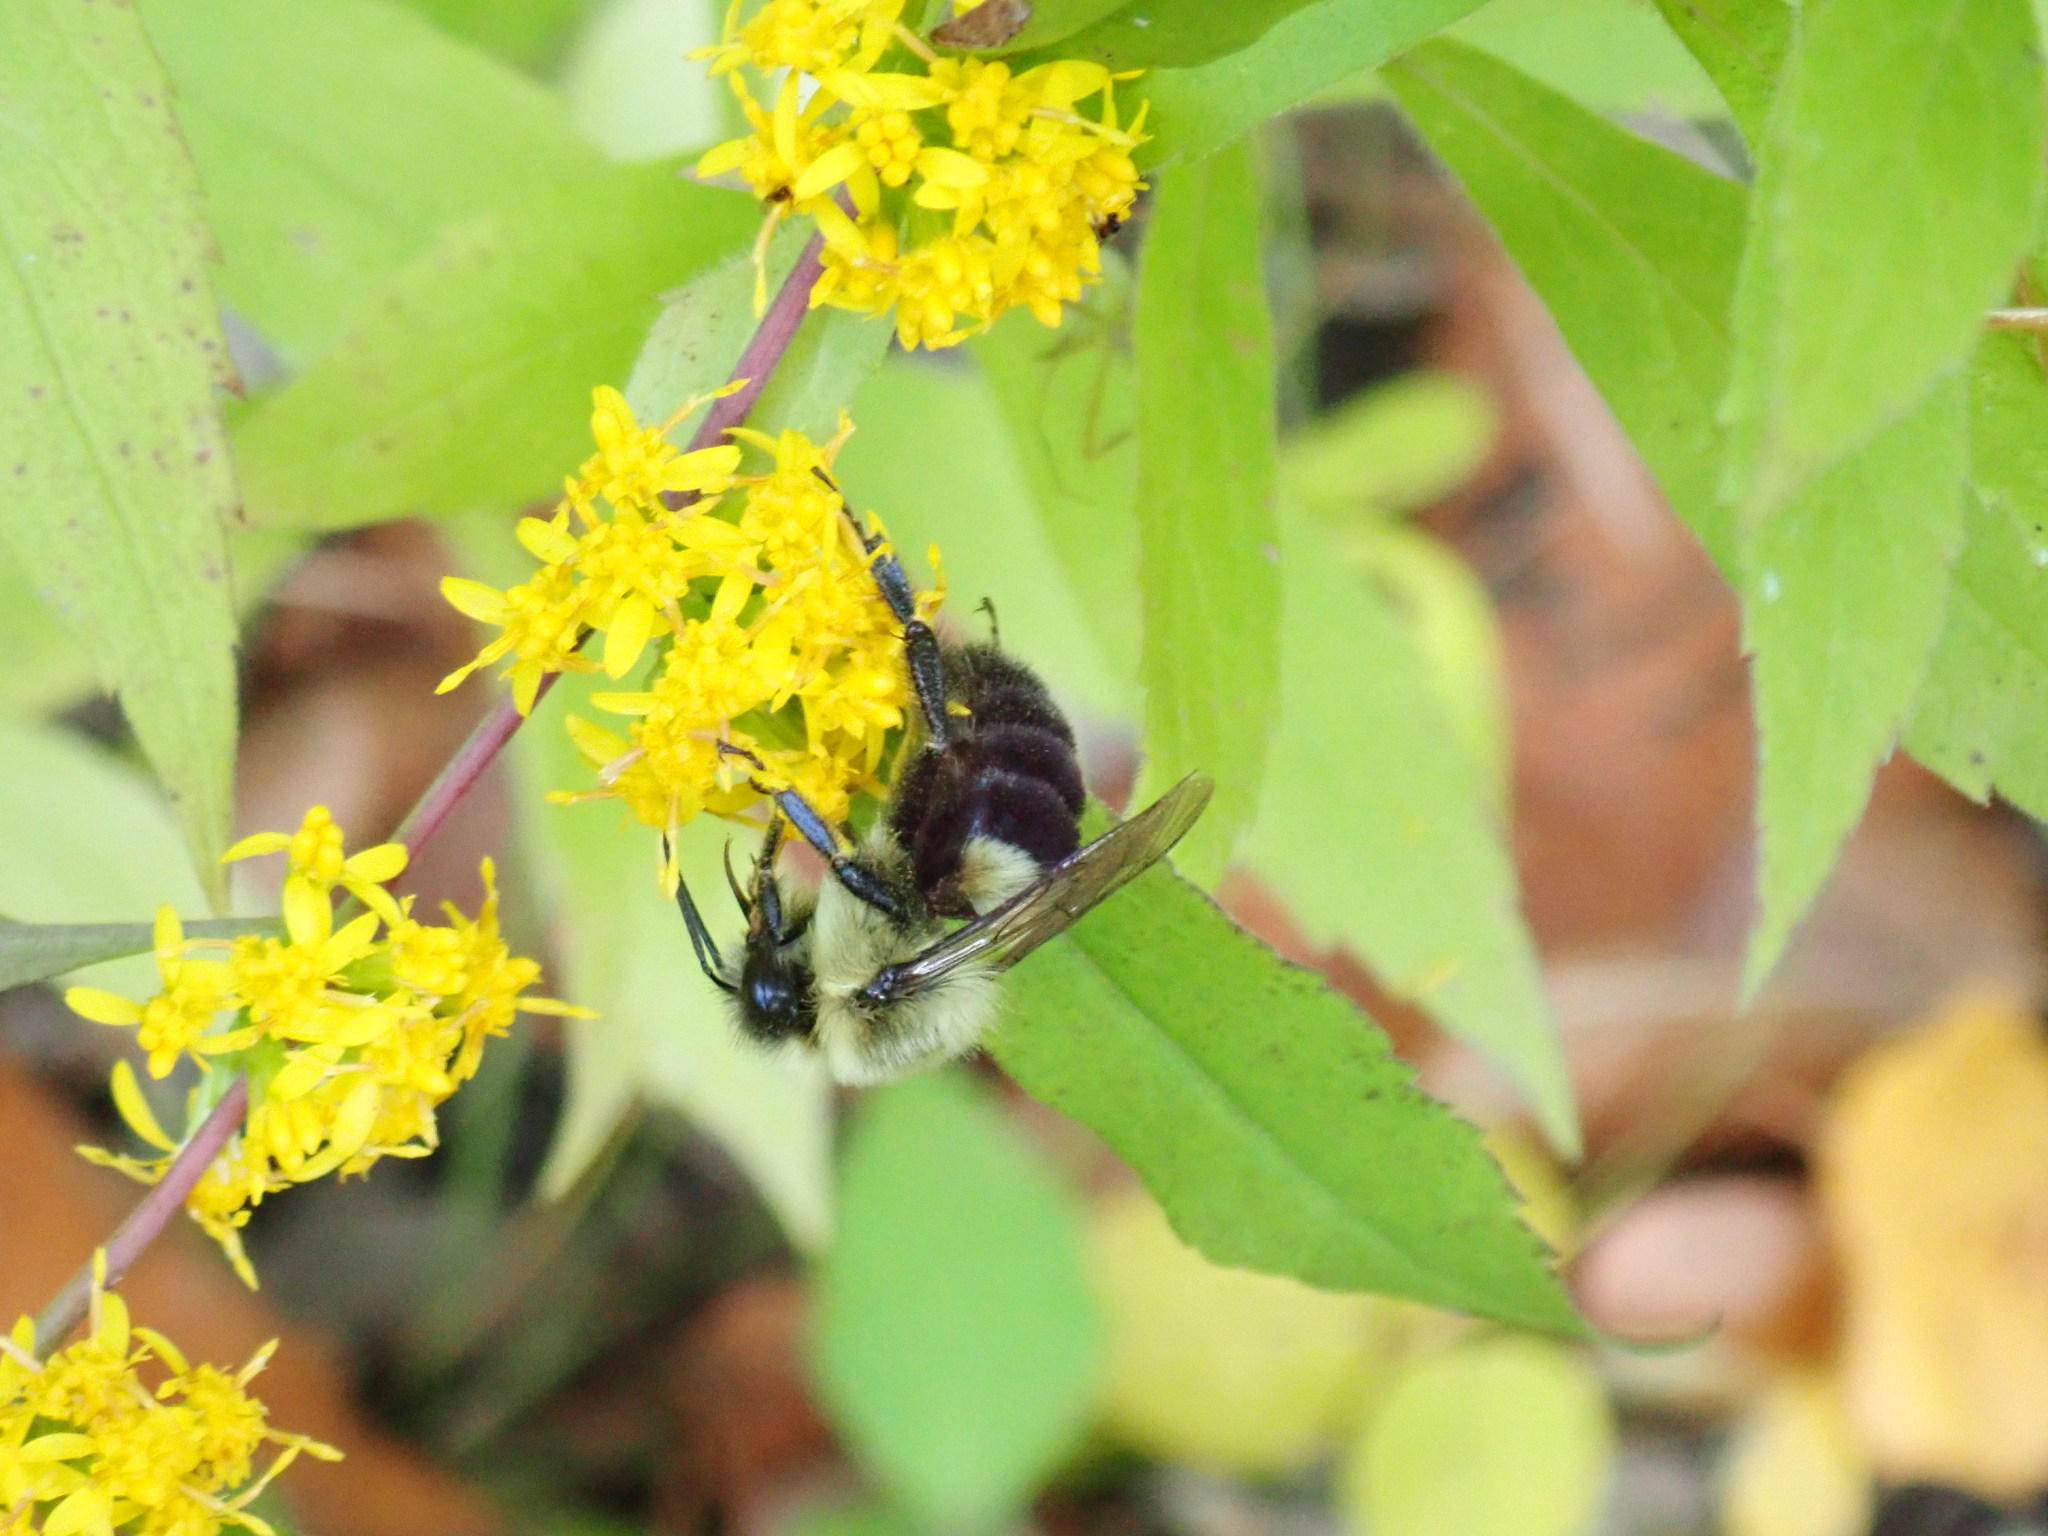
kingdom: Animalia
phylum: Arthropoda
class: Insecta
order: Hymenoptera
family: Apidae
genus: Bombus
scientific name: Bombus impatiens
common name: Common eastern bumble bee
